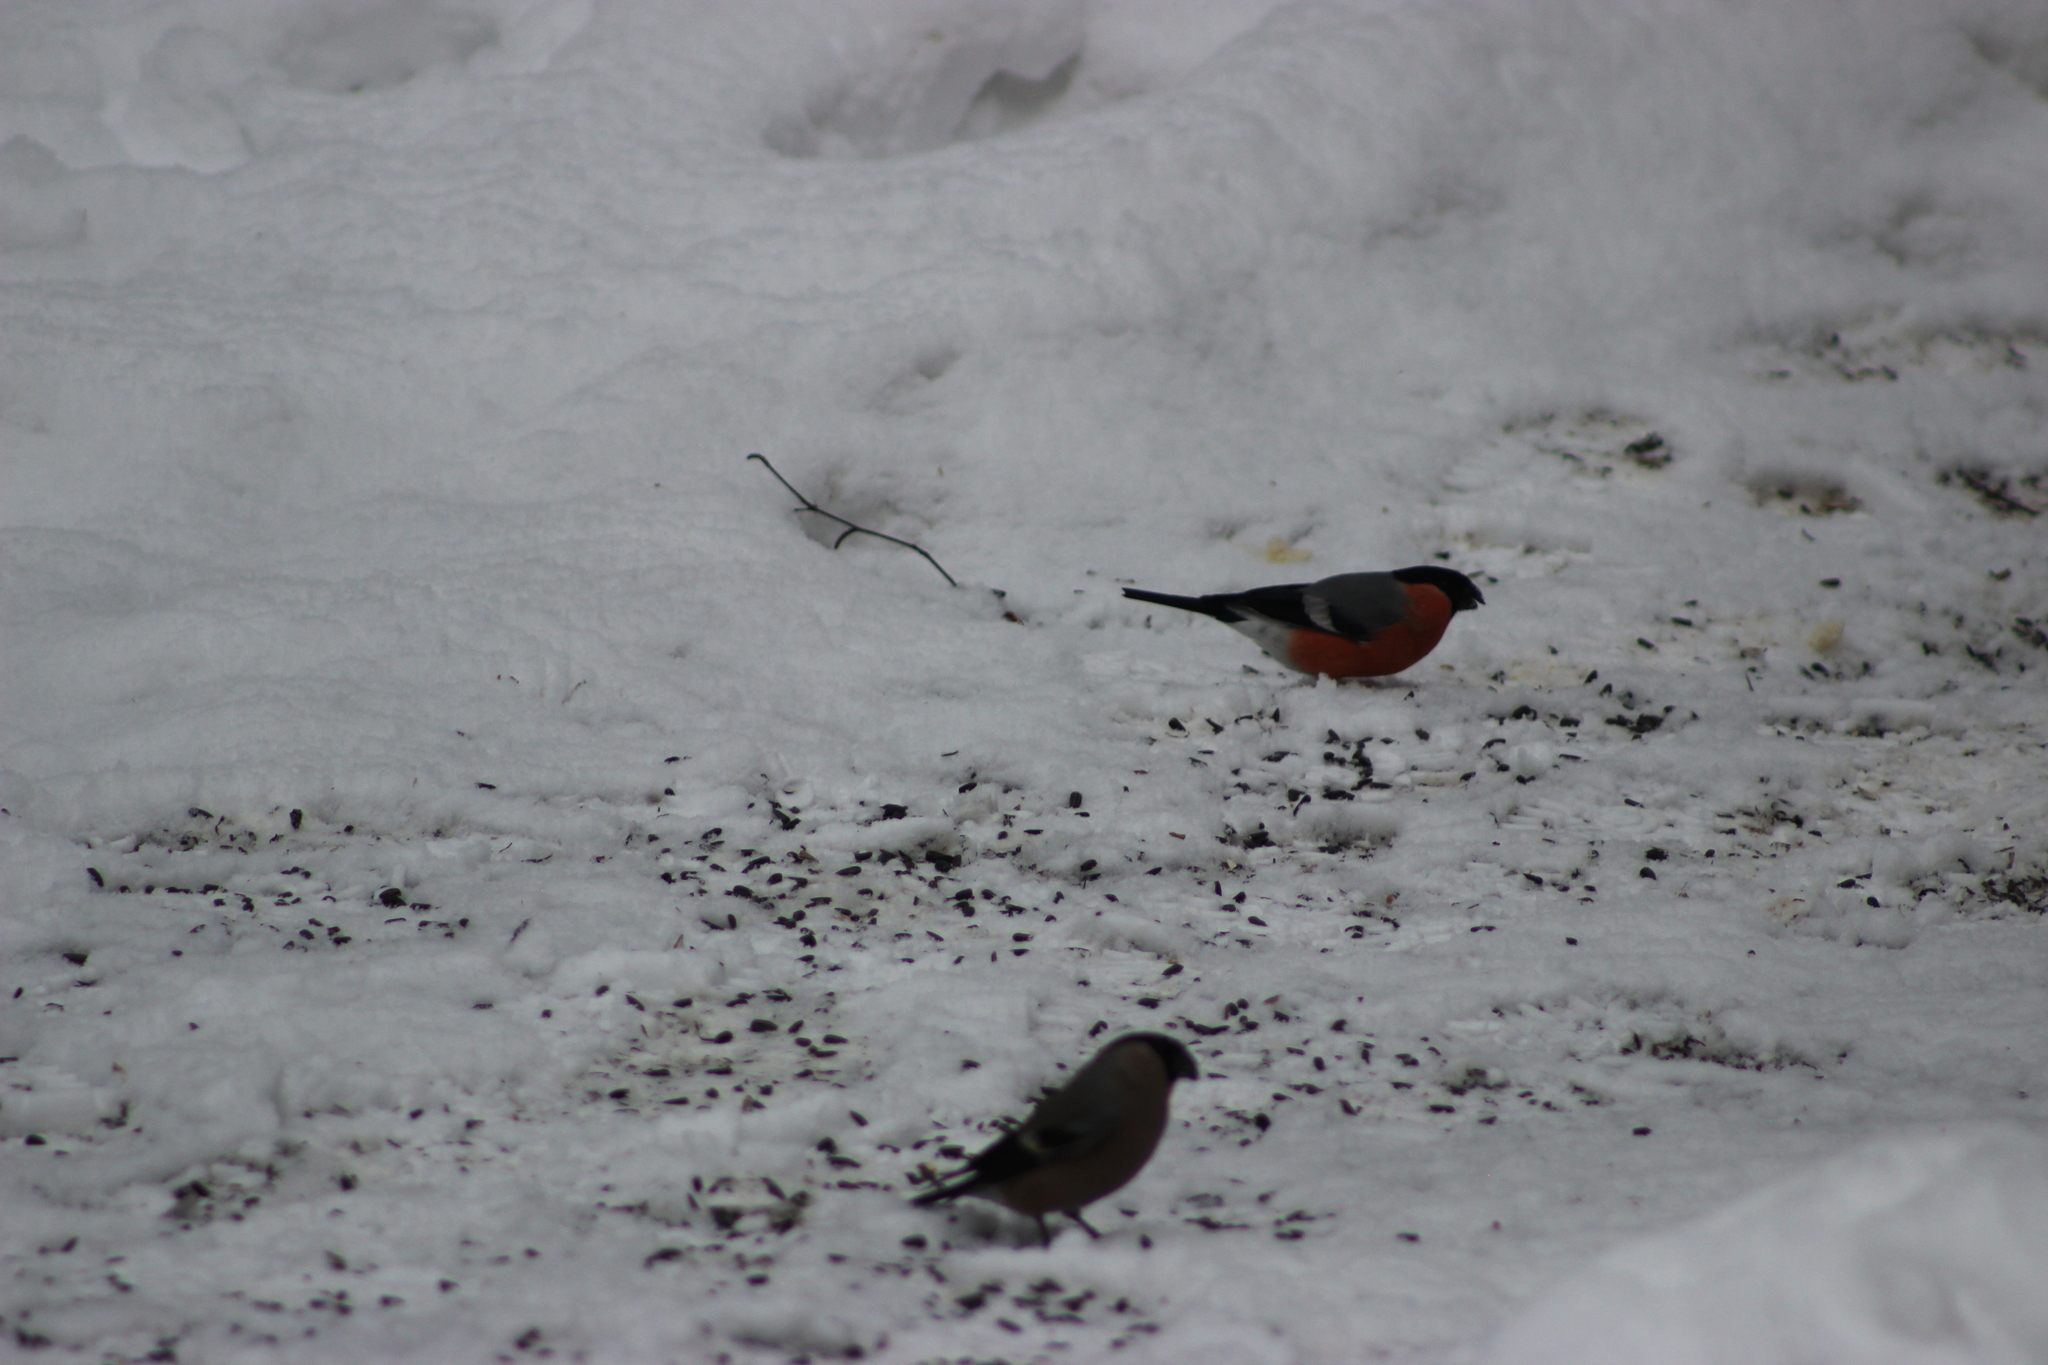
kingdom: Animalia
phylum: Chordata
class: Aves
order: Passeriformes
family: Fringillidae
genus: Pyrrhula
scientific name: Pyrrhula pyrrhula
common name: Eurasian bullfinch
